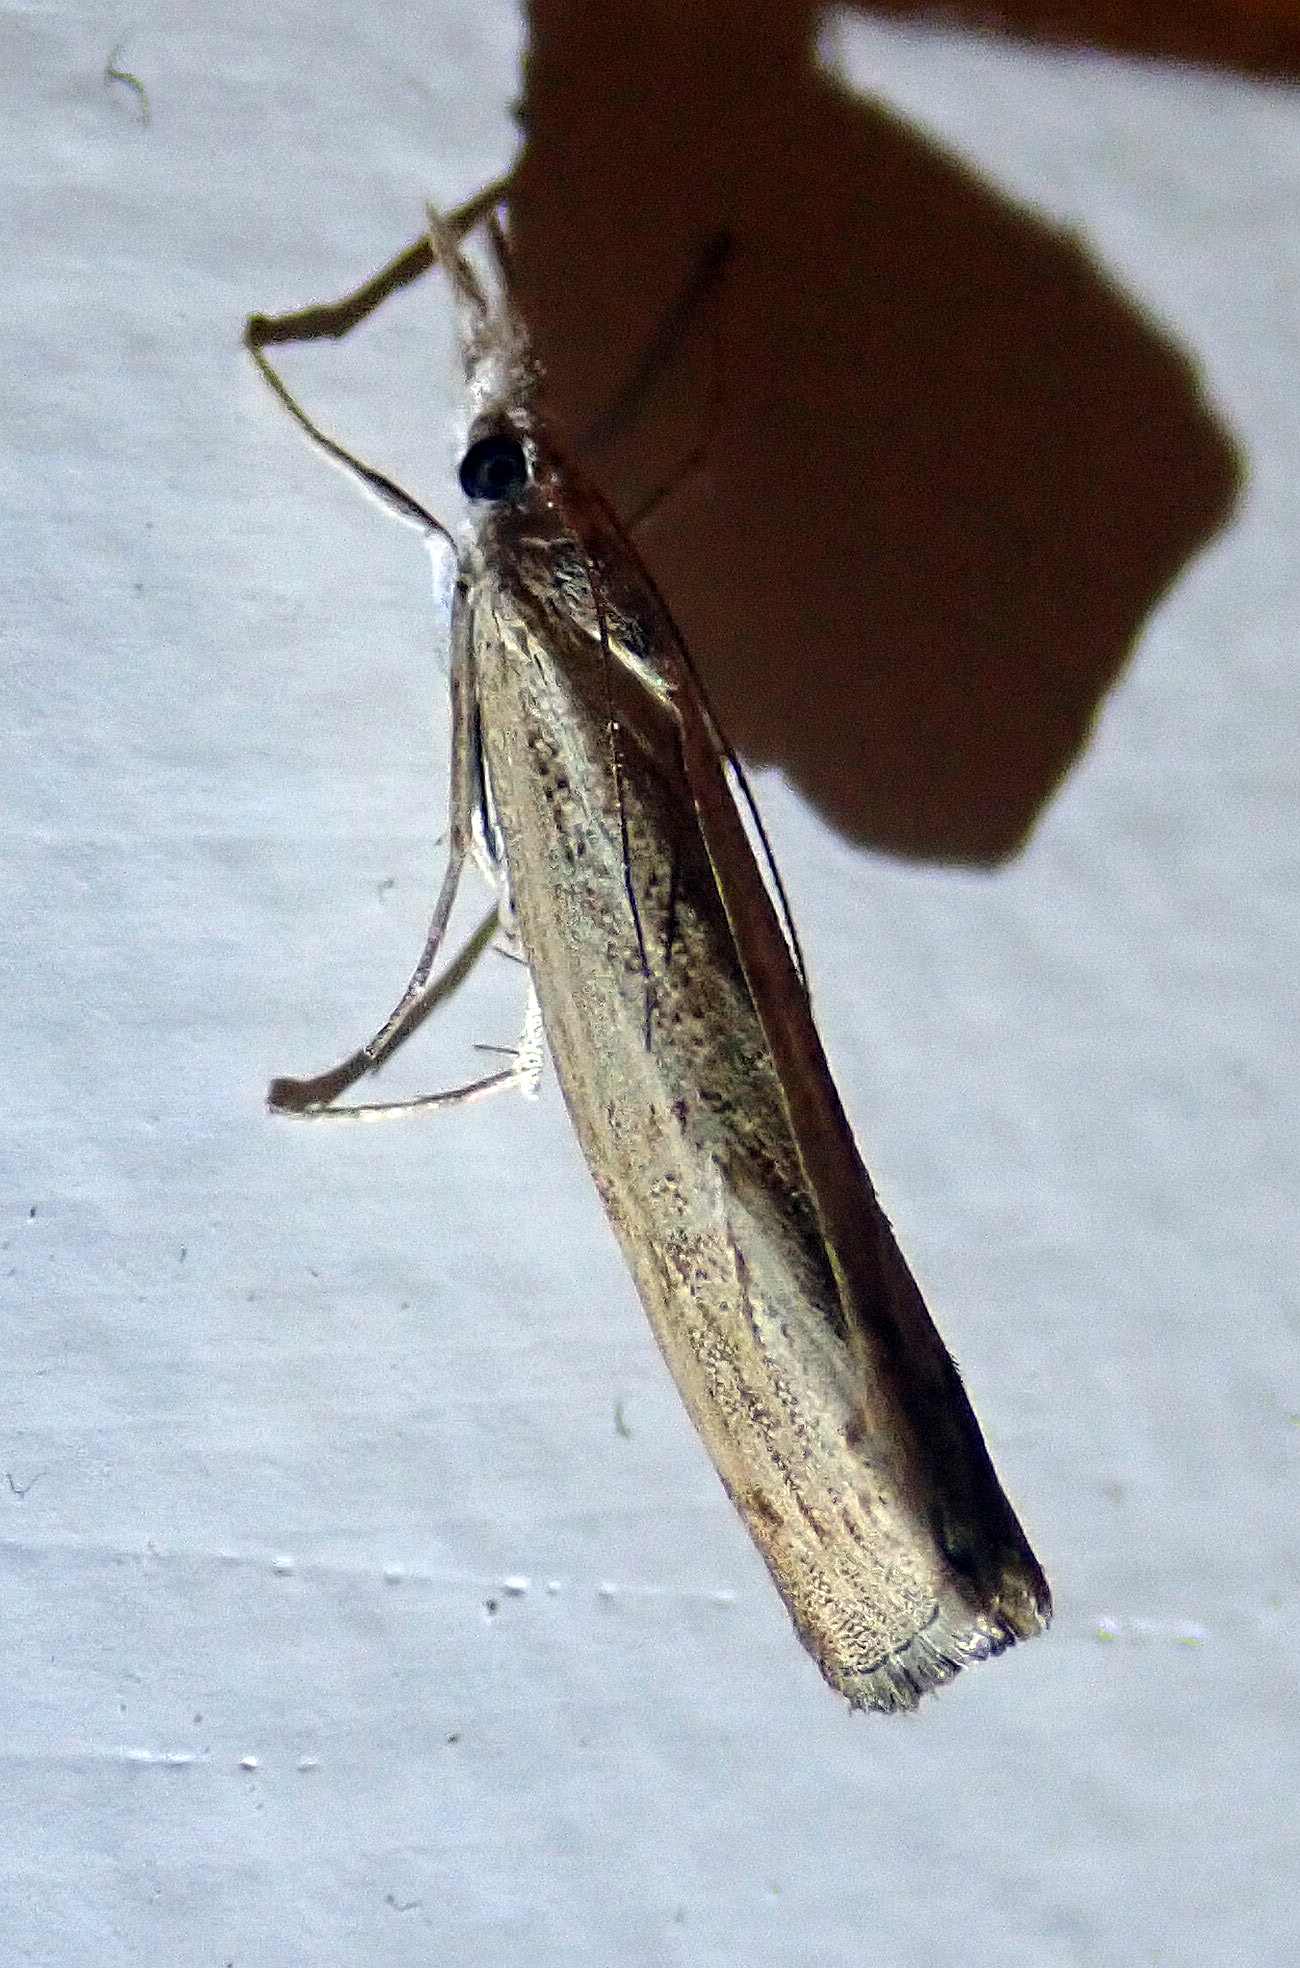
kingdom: Animalia
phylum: Arthropoda
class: Insecta
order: Lepidoptera
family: Crambidae
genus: Culladia
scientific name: Culladia cuneiferellus
